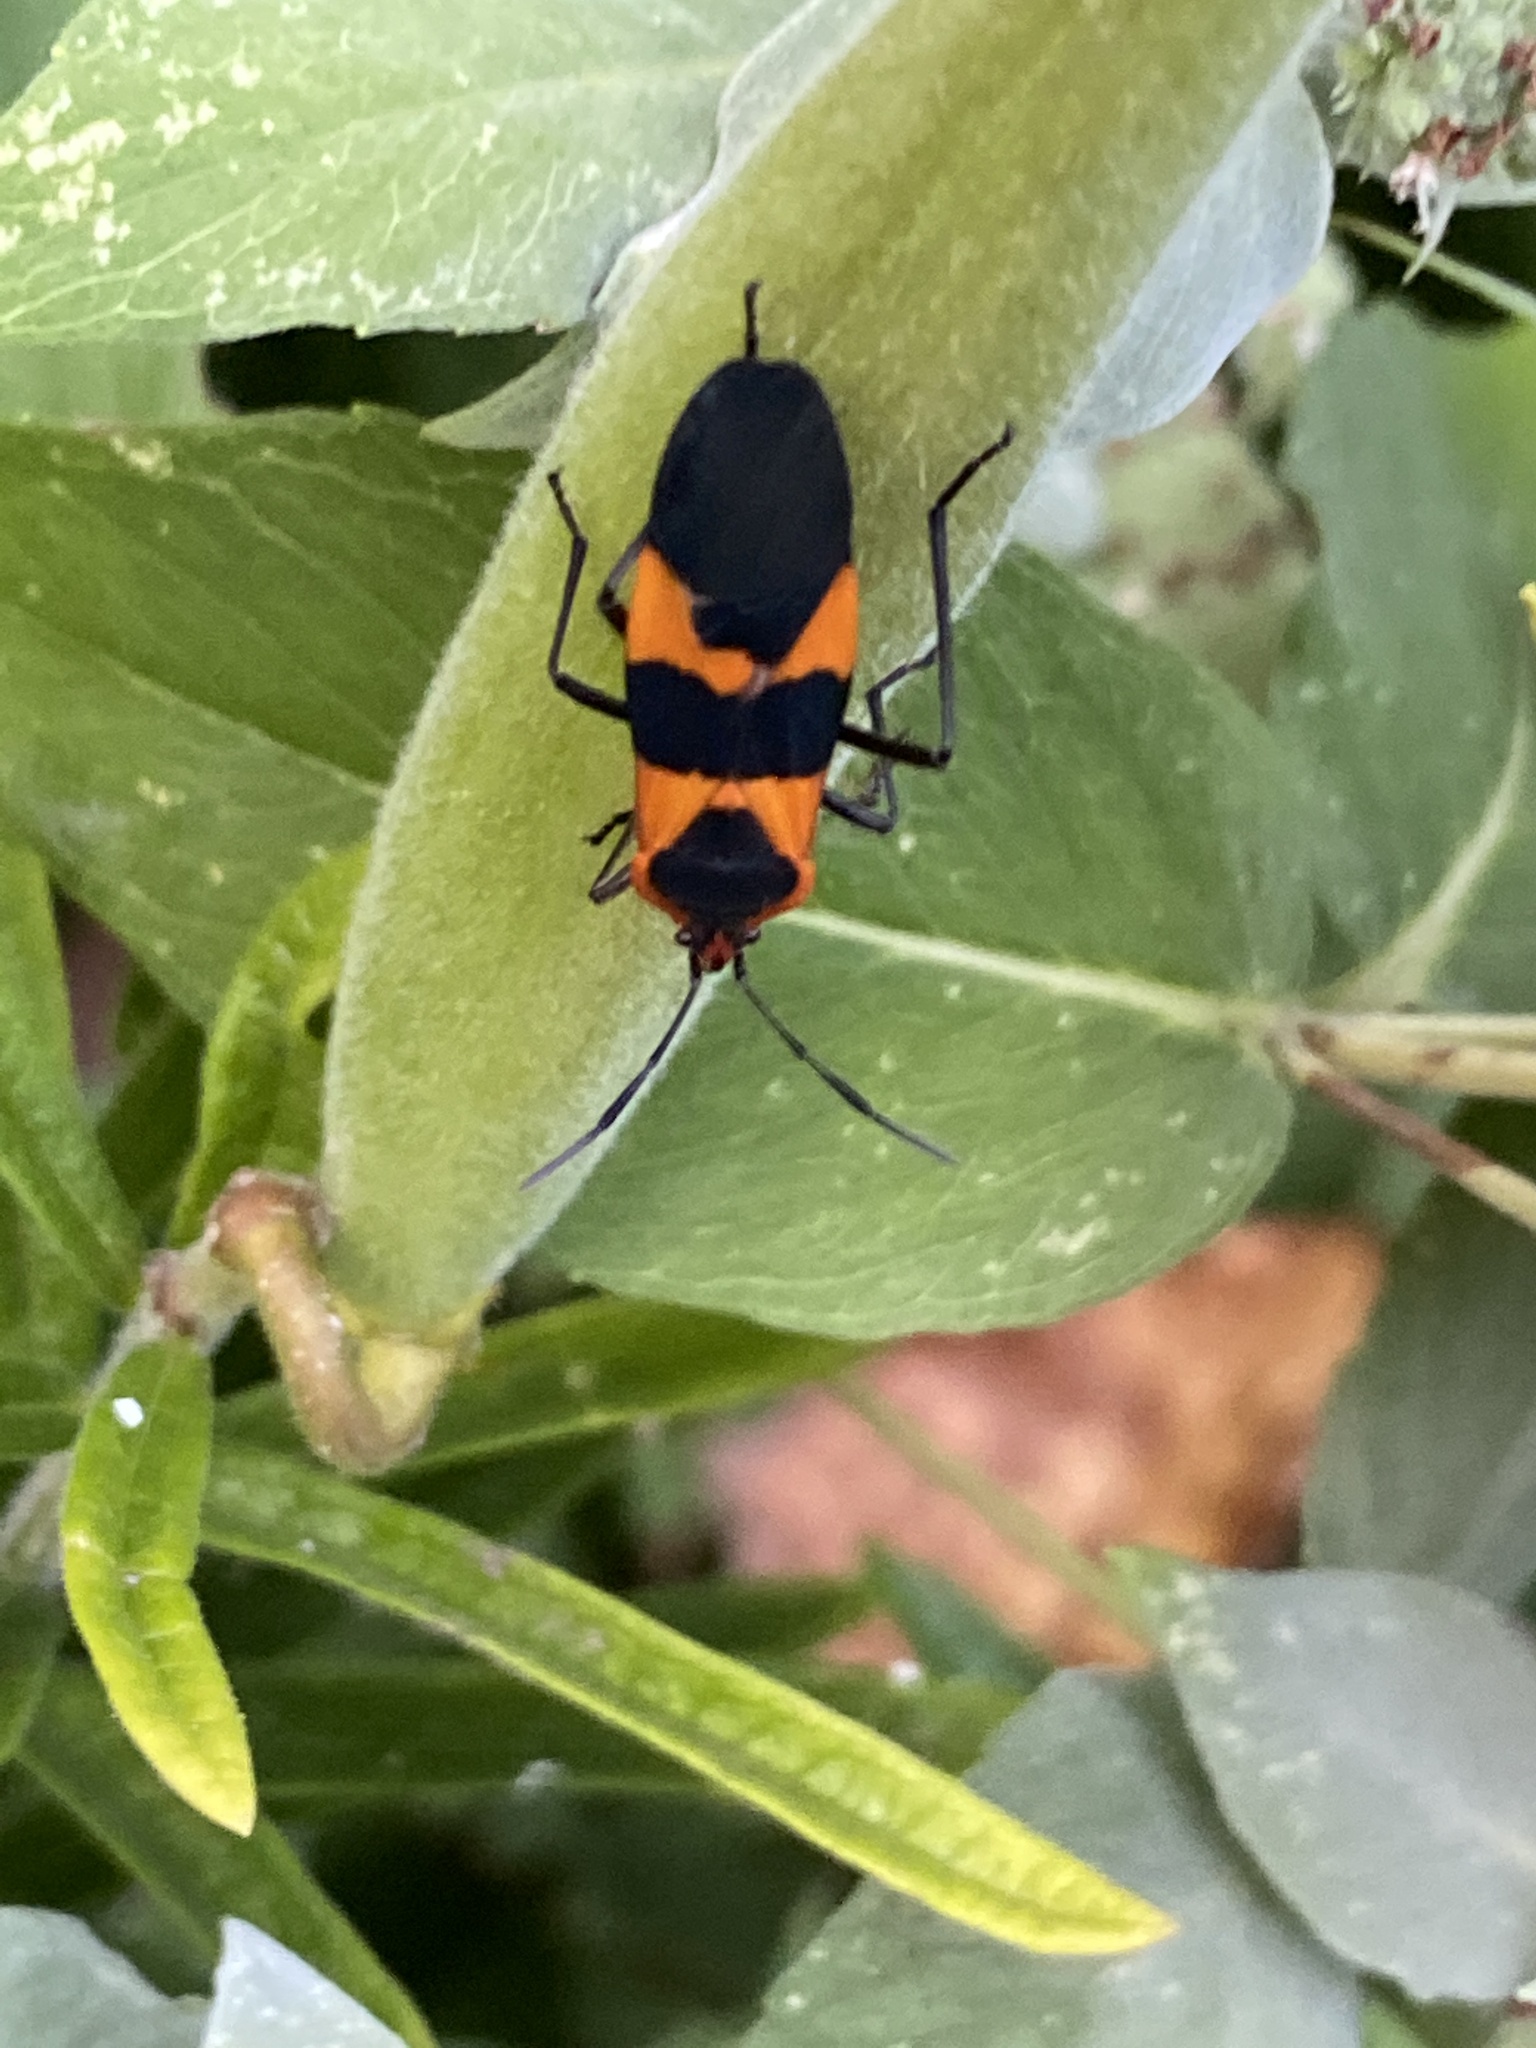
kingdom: Animalia
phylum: Arthropoda
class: Insecta
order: Hemiptera
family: Lygaeidae
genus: Oncopeltus
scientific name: Oncopeltus fasciatus
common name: Large milkweed bug
